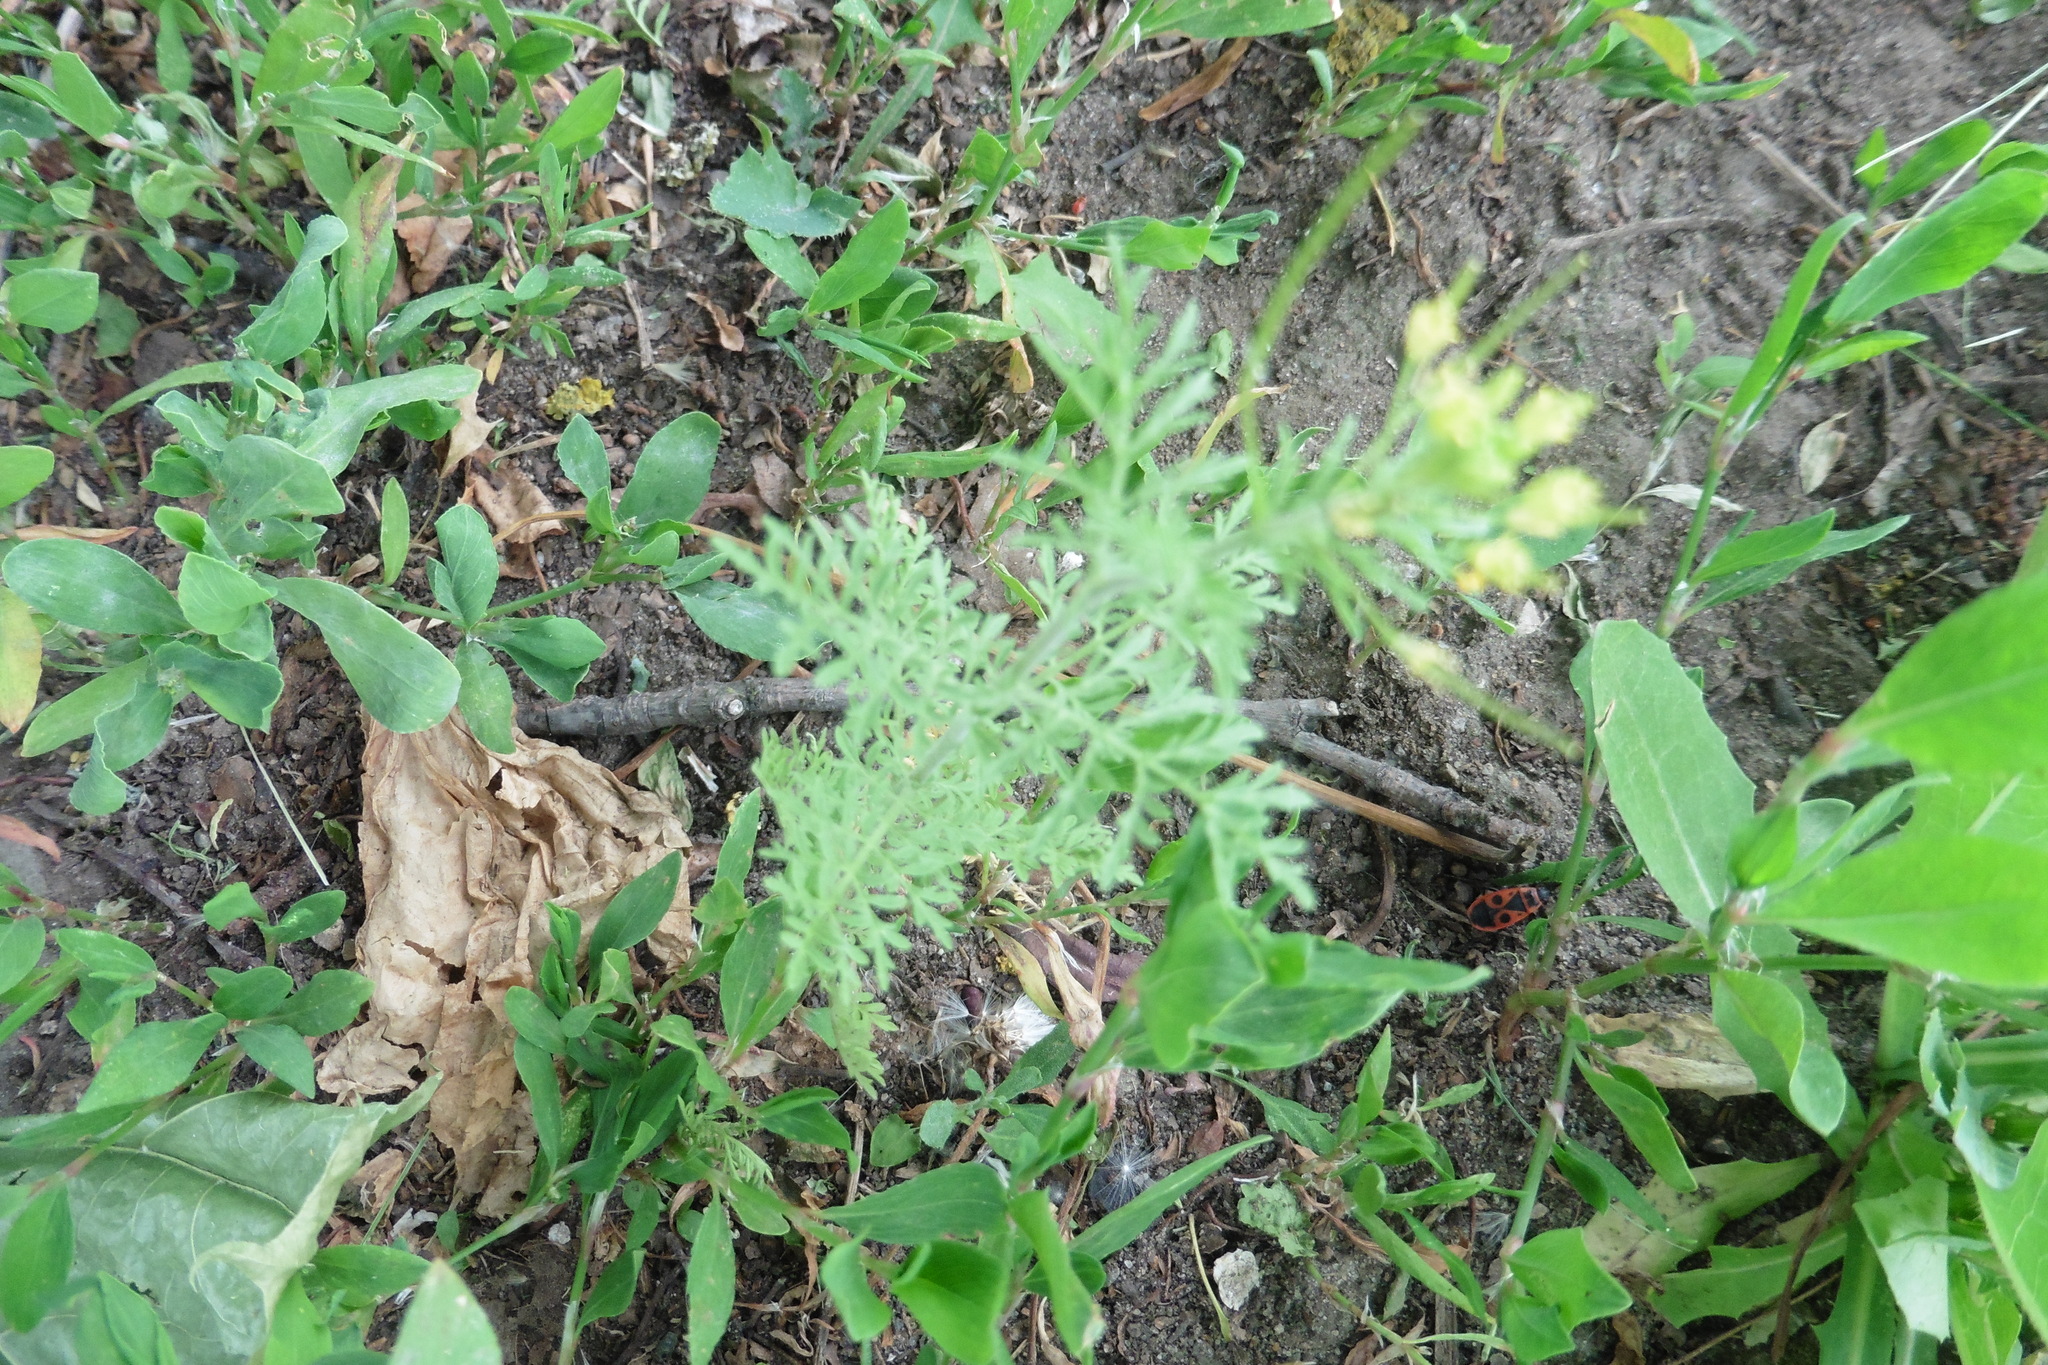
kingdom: Plantae
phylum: Tracheophyta
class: Magnoliopsida
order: Brassicales
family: Brassicaceae
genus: Descurainia
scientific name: Descurainia sophia
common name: Flixweed
